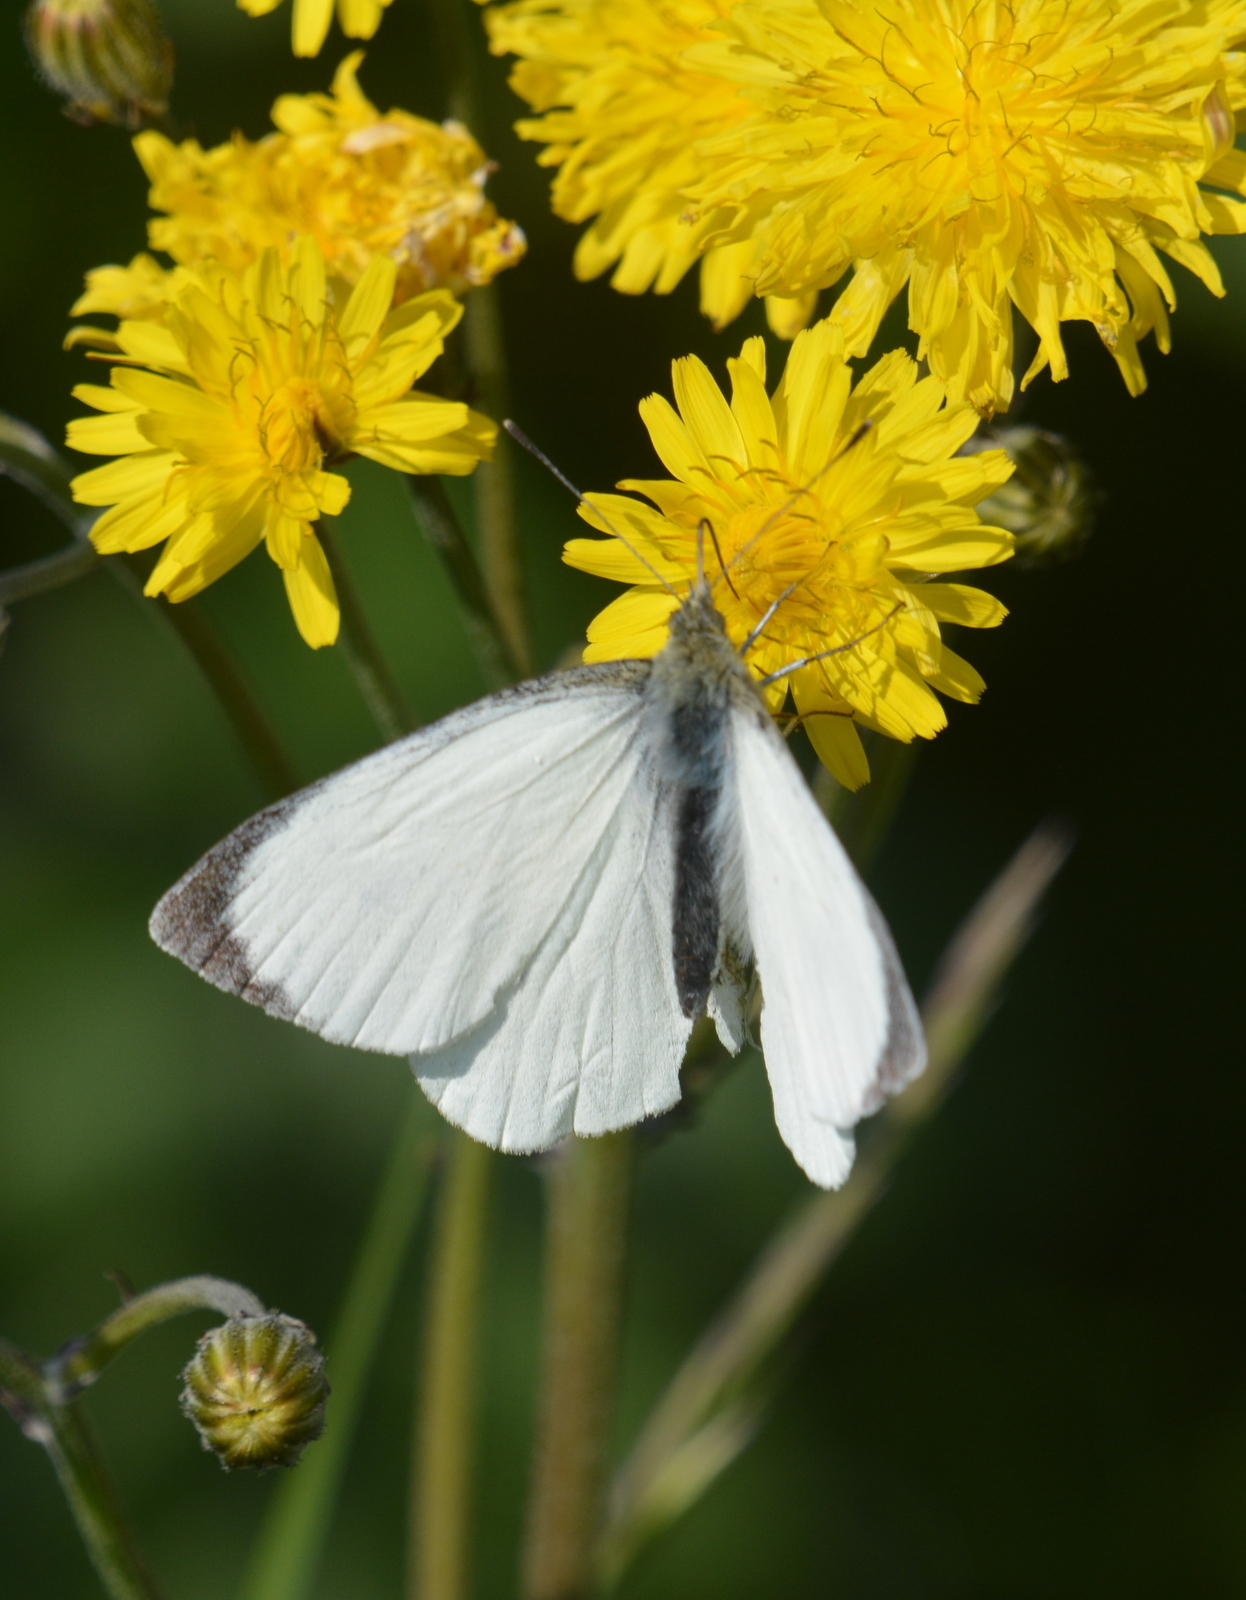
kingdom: Animalia
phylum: Arthropoda
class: Insecta
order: Lepidoptera
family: Pieridae
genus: Pieris
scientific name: Pieris brassicae
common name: Large white
